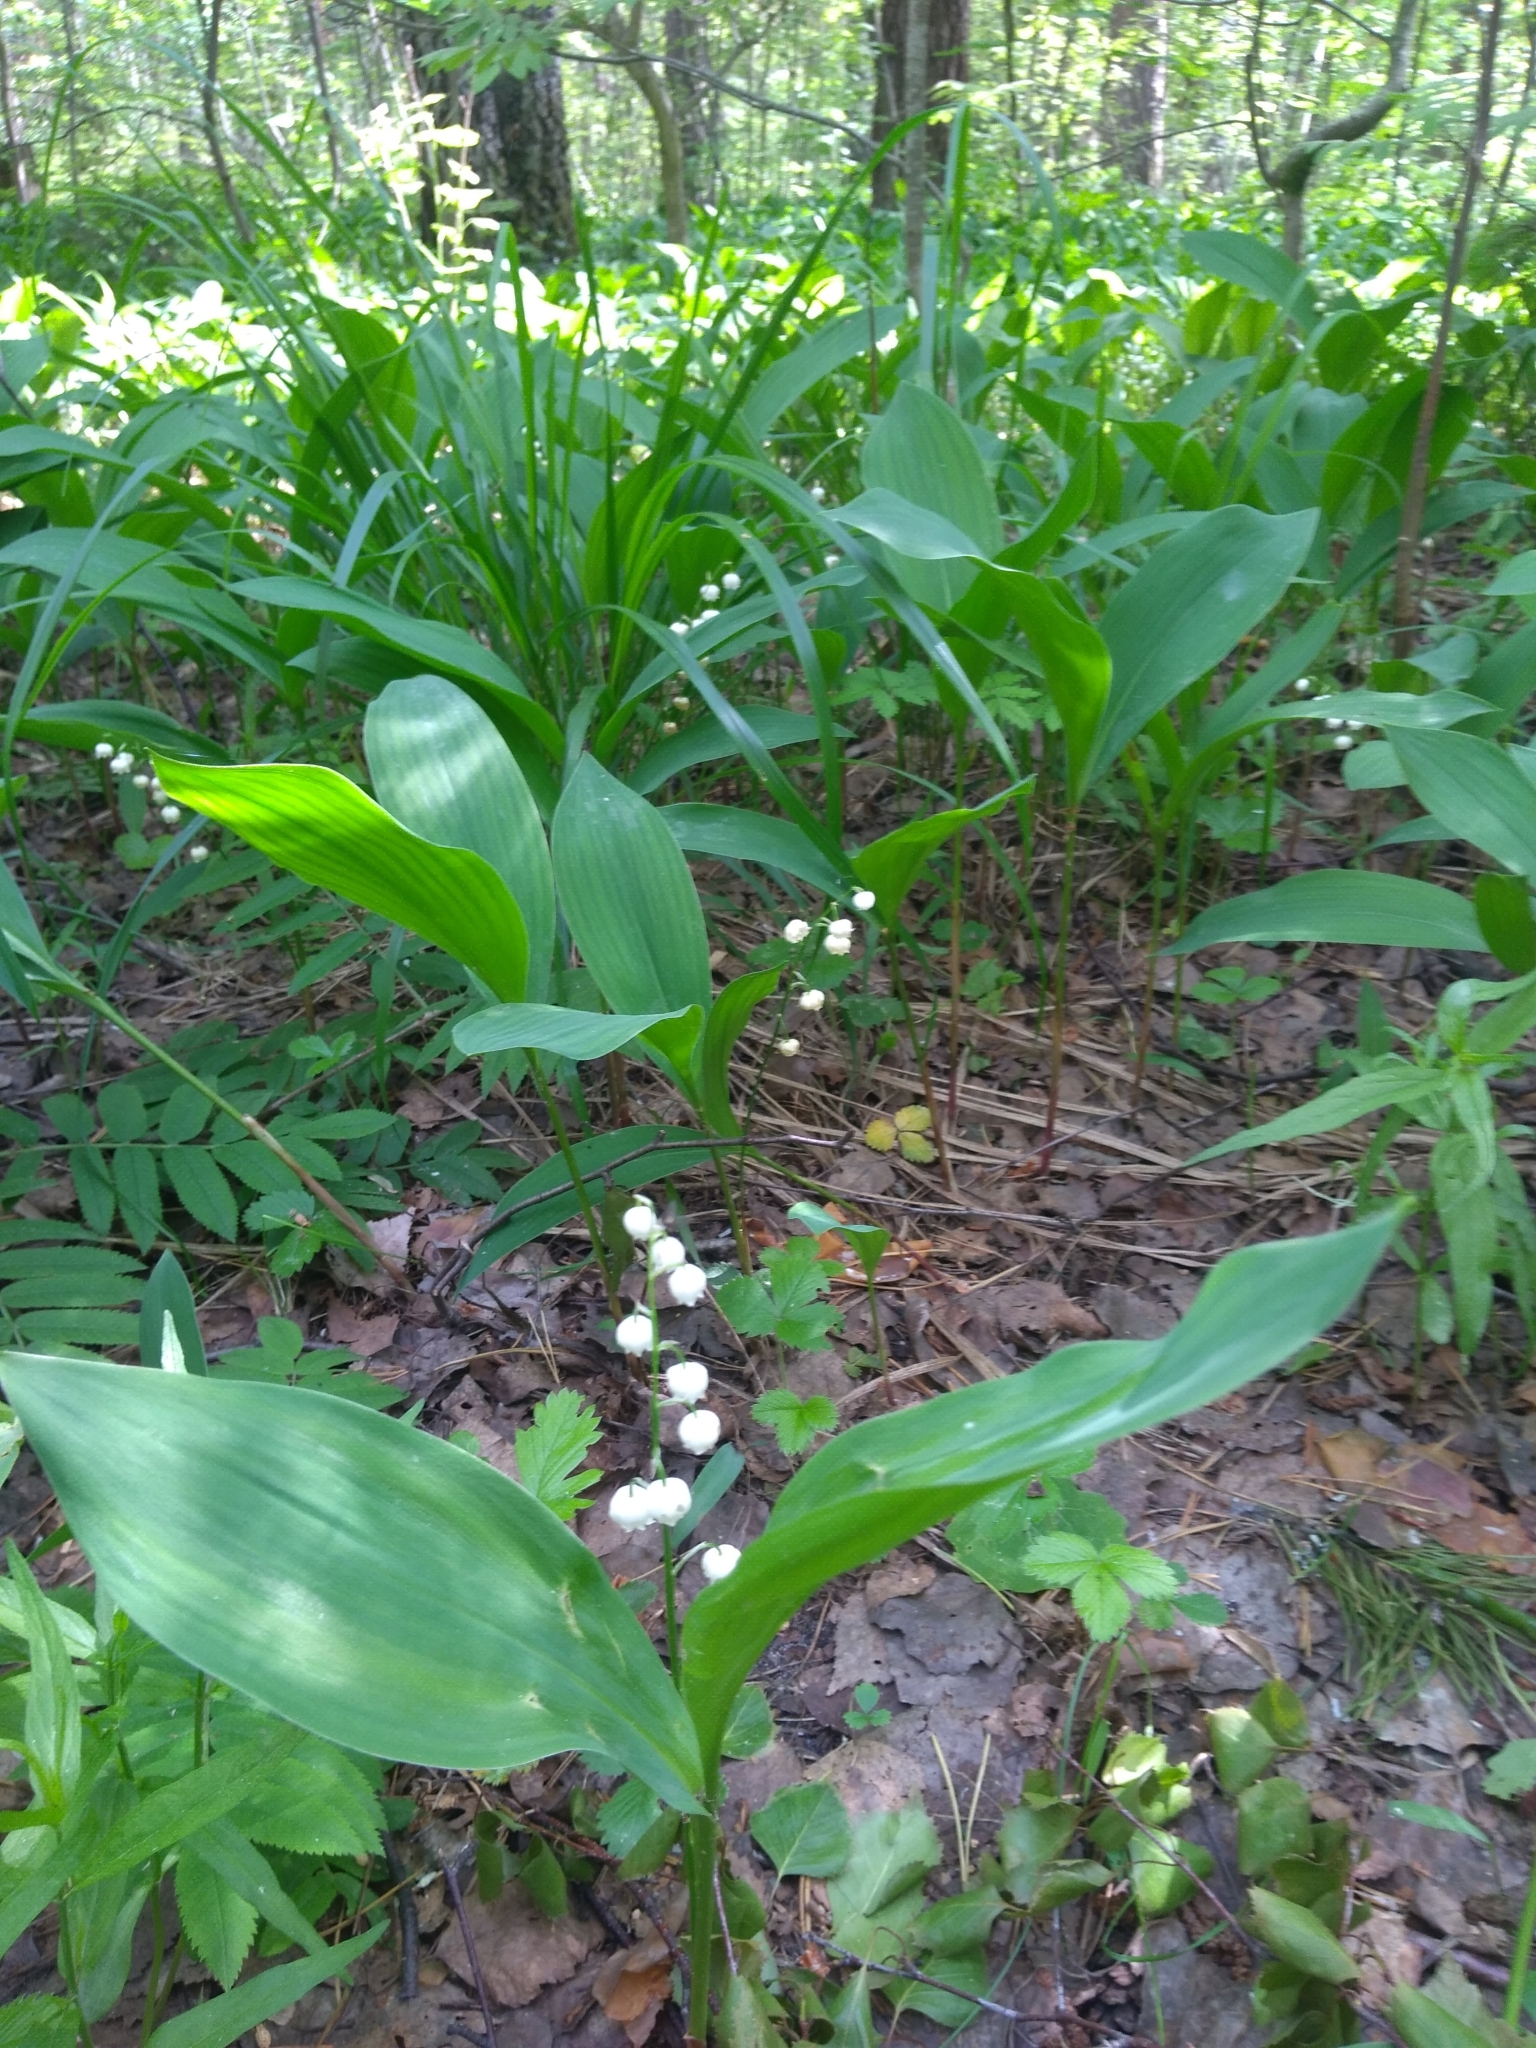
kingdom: Plantae
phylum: Tracheophyta
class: Liliopsida
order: Asparagales
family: Asparagaceae
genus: Convallaria
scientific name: Convallaria majalis
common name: Lily-of-the-valley
